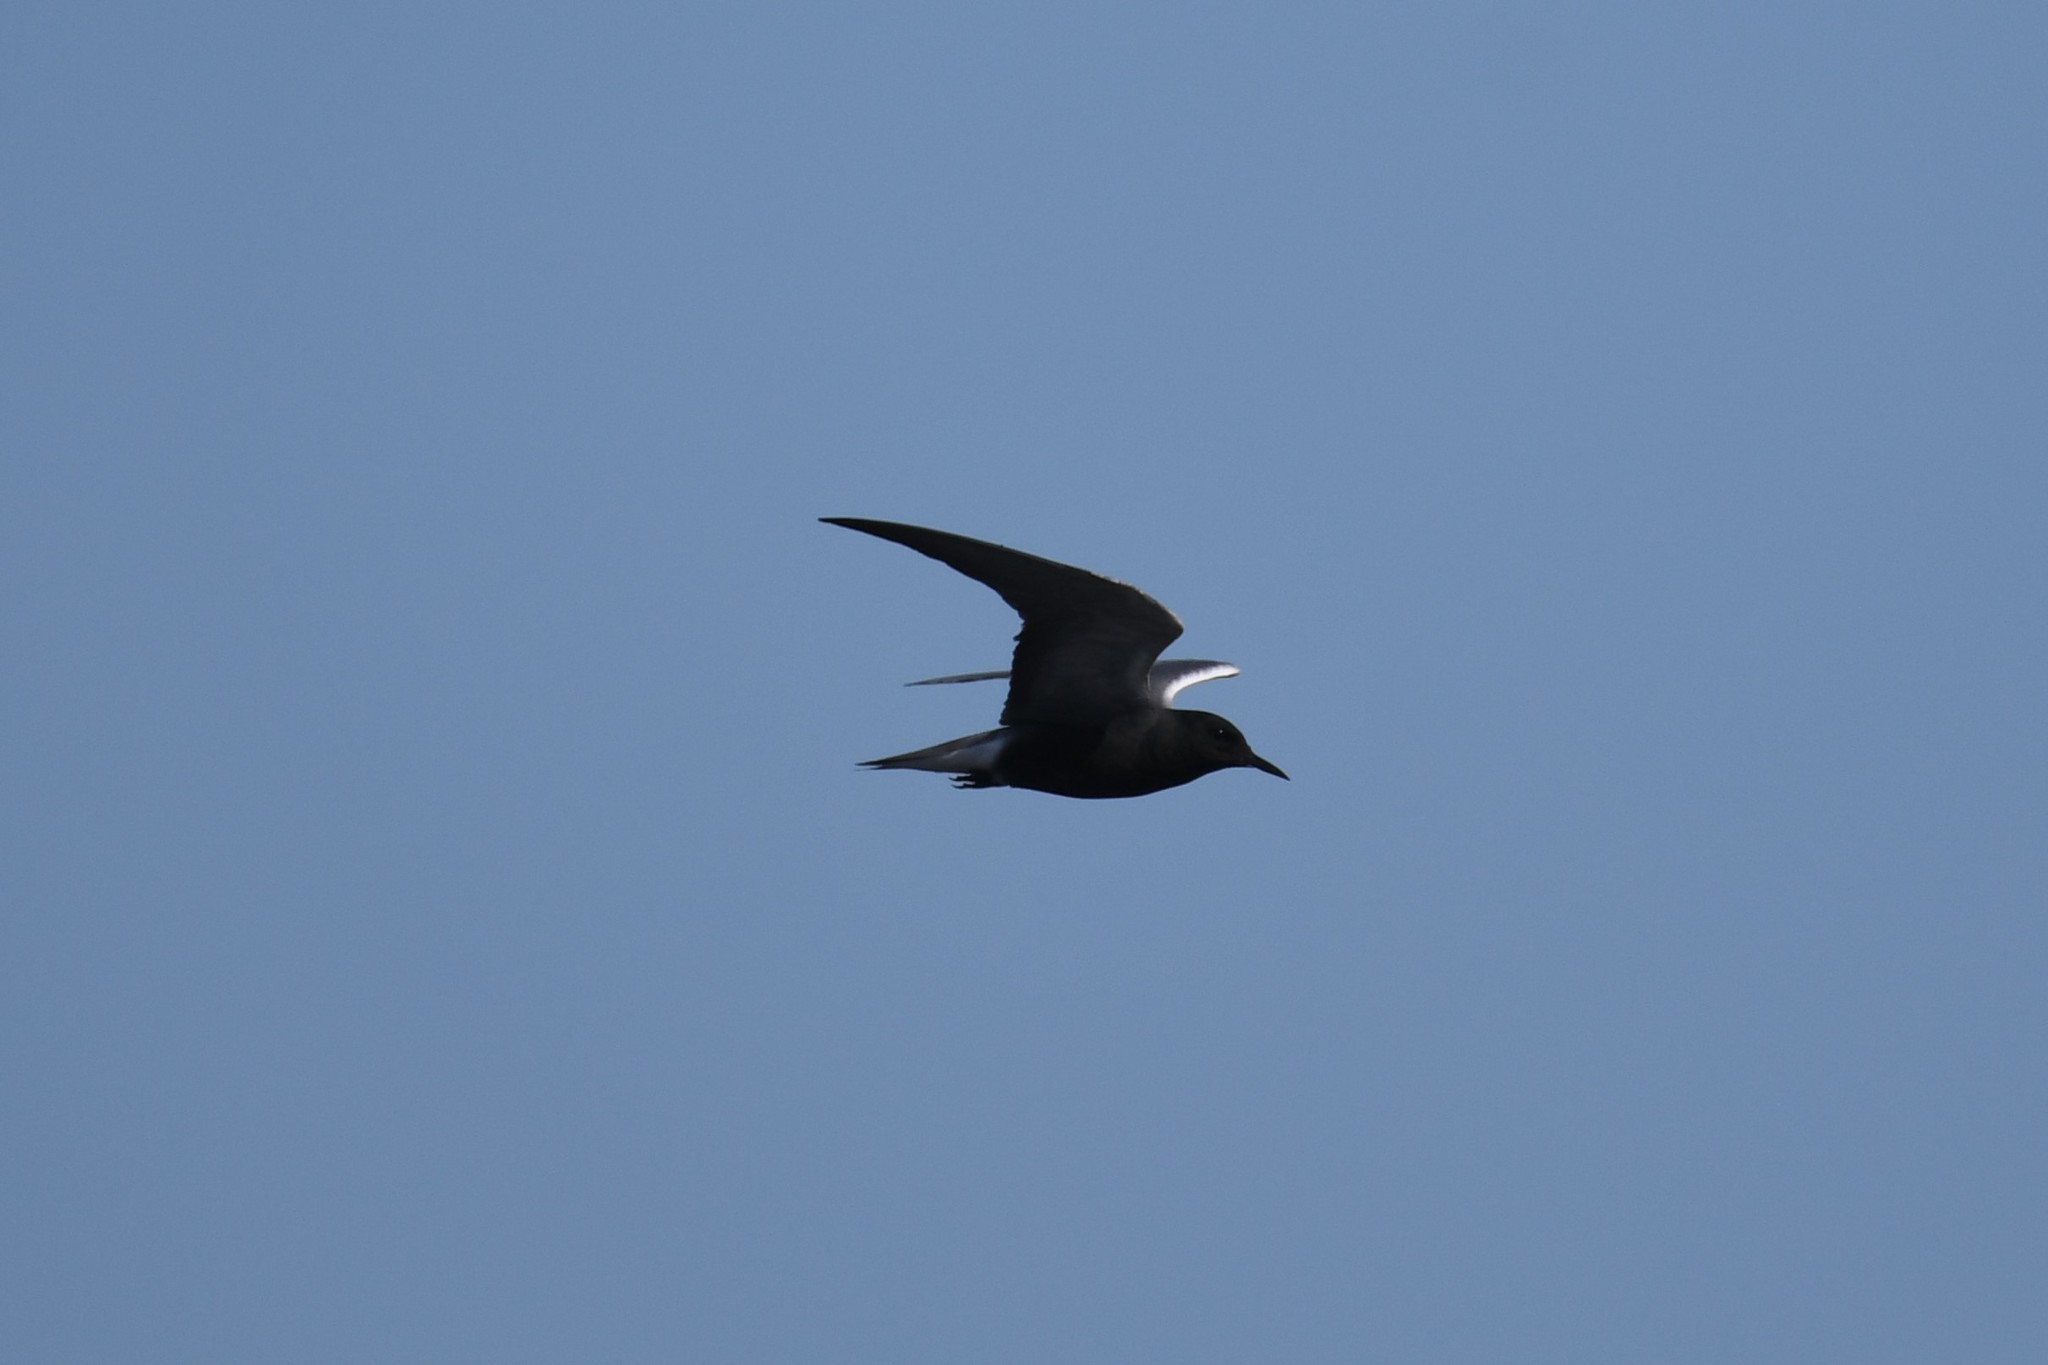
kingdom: Animalia
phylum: Chordata
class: Aves
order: Charadriiformes
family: Laridae
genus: Chlidonias
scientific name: Chlidonias niger
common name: Black tern
